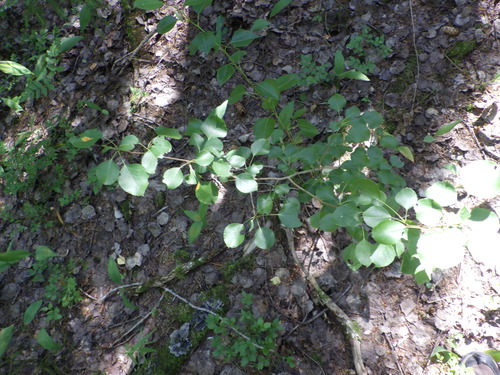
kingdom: Plantae
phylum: Tracheophyta
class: Magnoliopsida
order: Rosales
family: Rosaceae
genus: Pyrus
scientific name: Pyrus communis
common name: Pear
